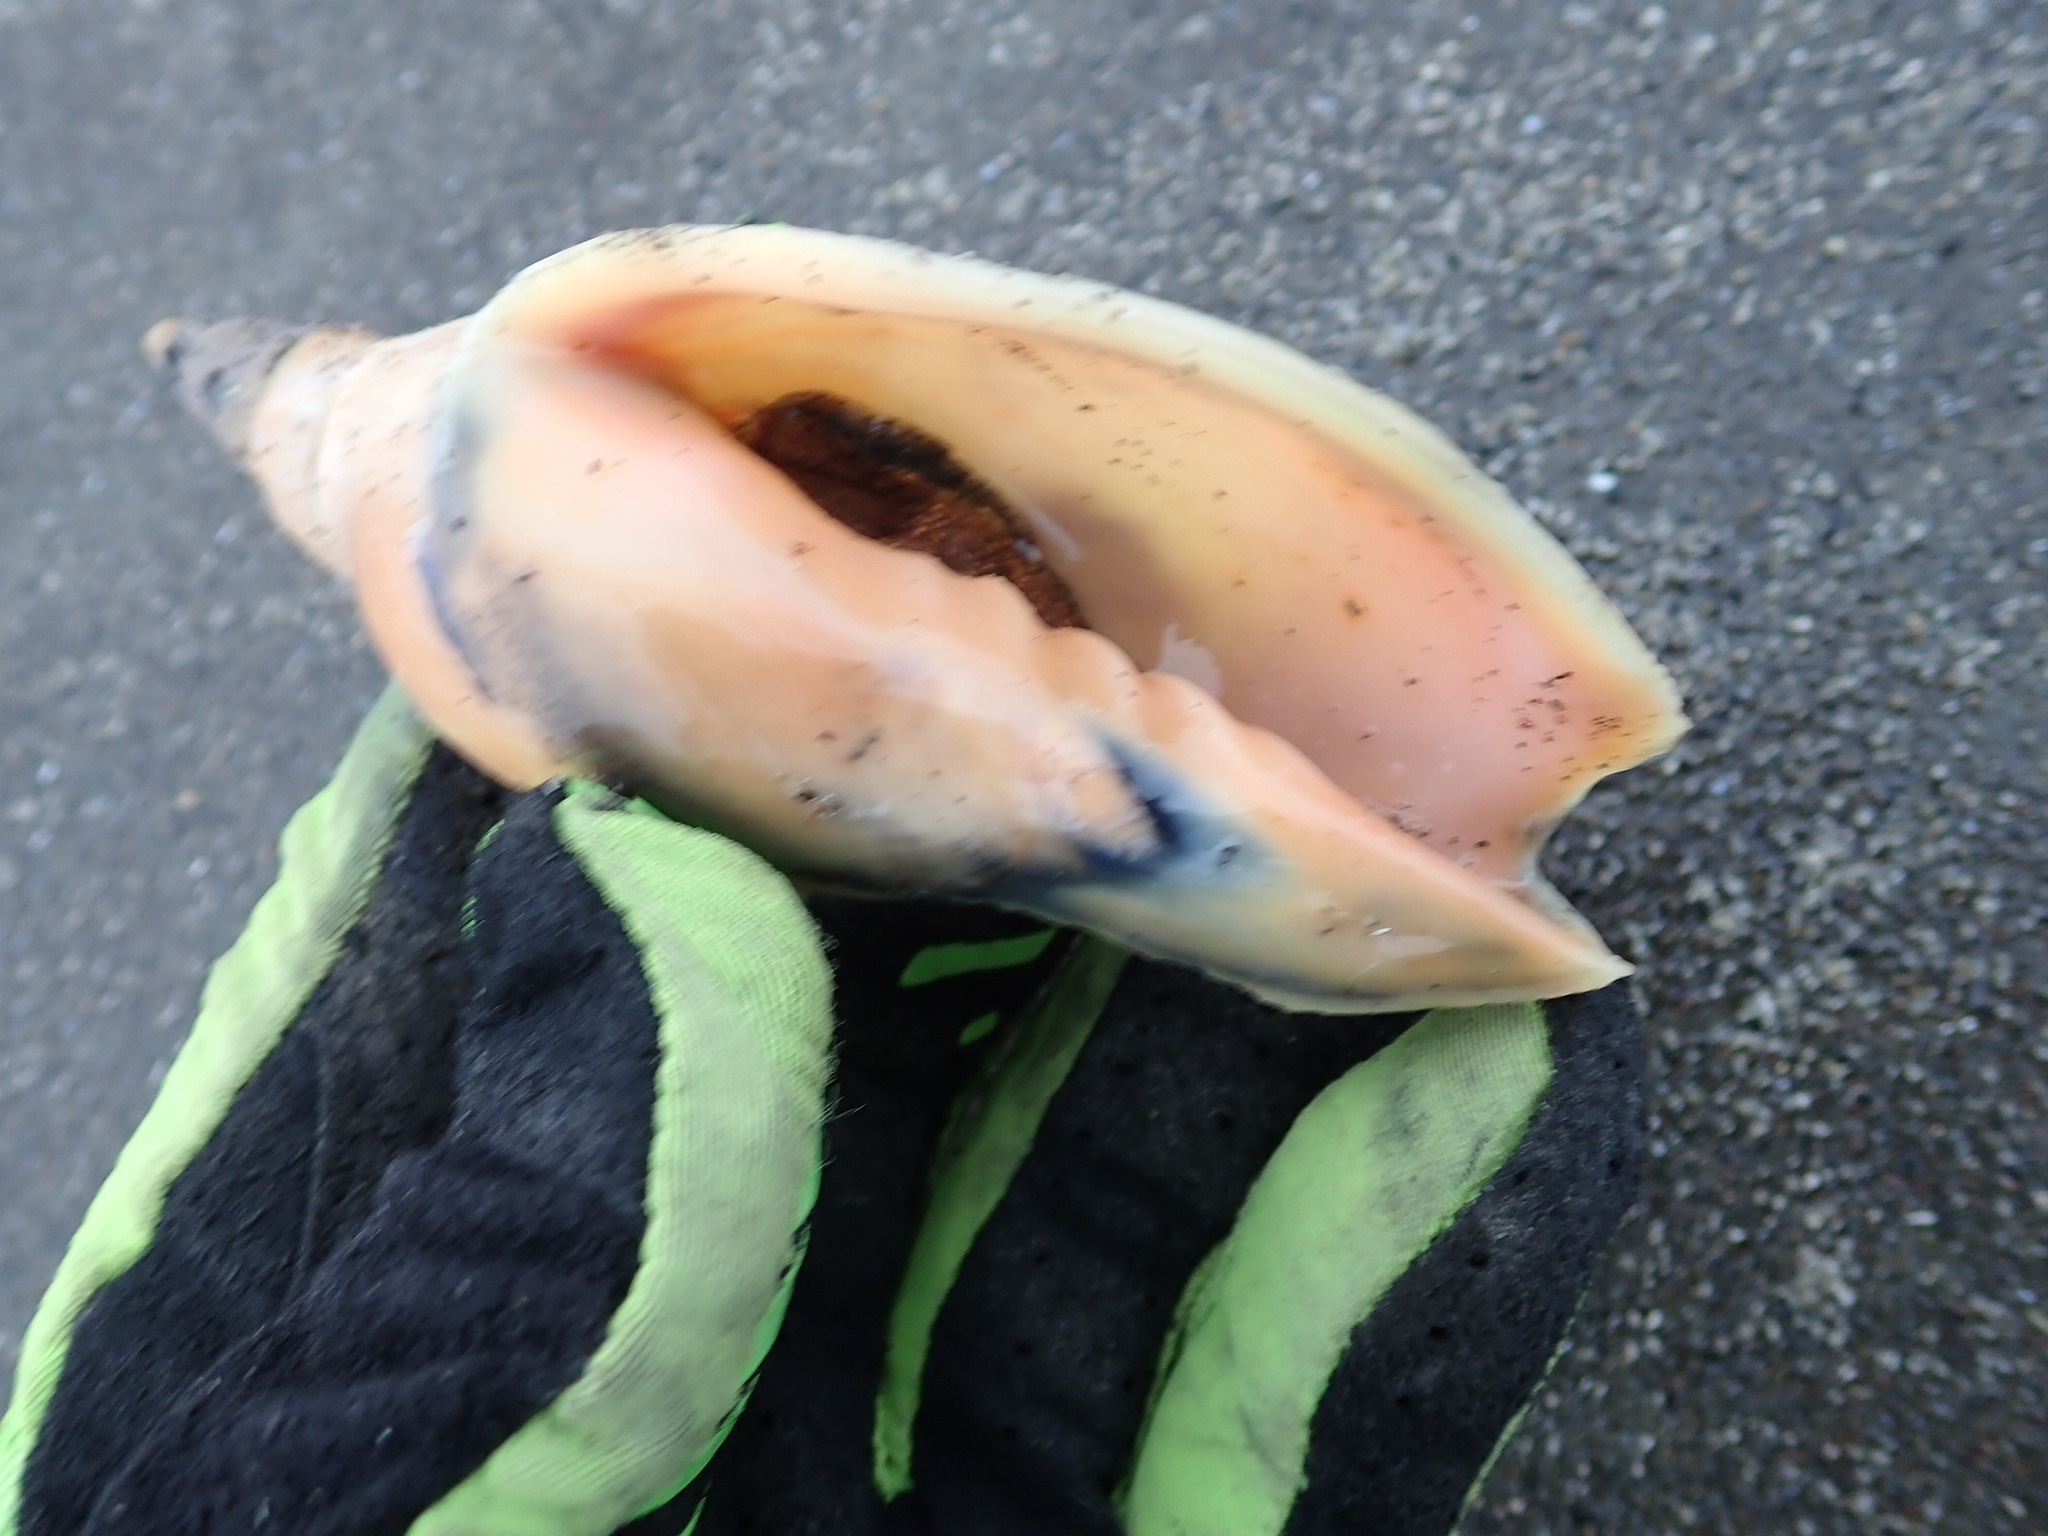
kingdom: Animalia
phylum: Mollusca
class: Gastropoda
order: Neogastropoda
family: Volutidae
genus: Alcithoe
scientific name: Alcithoe arabica
